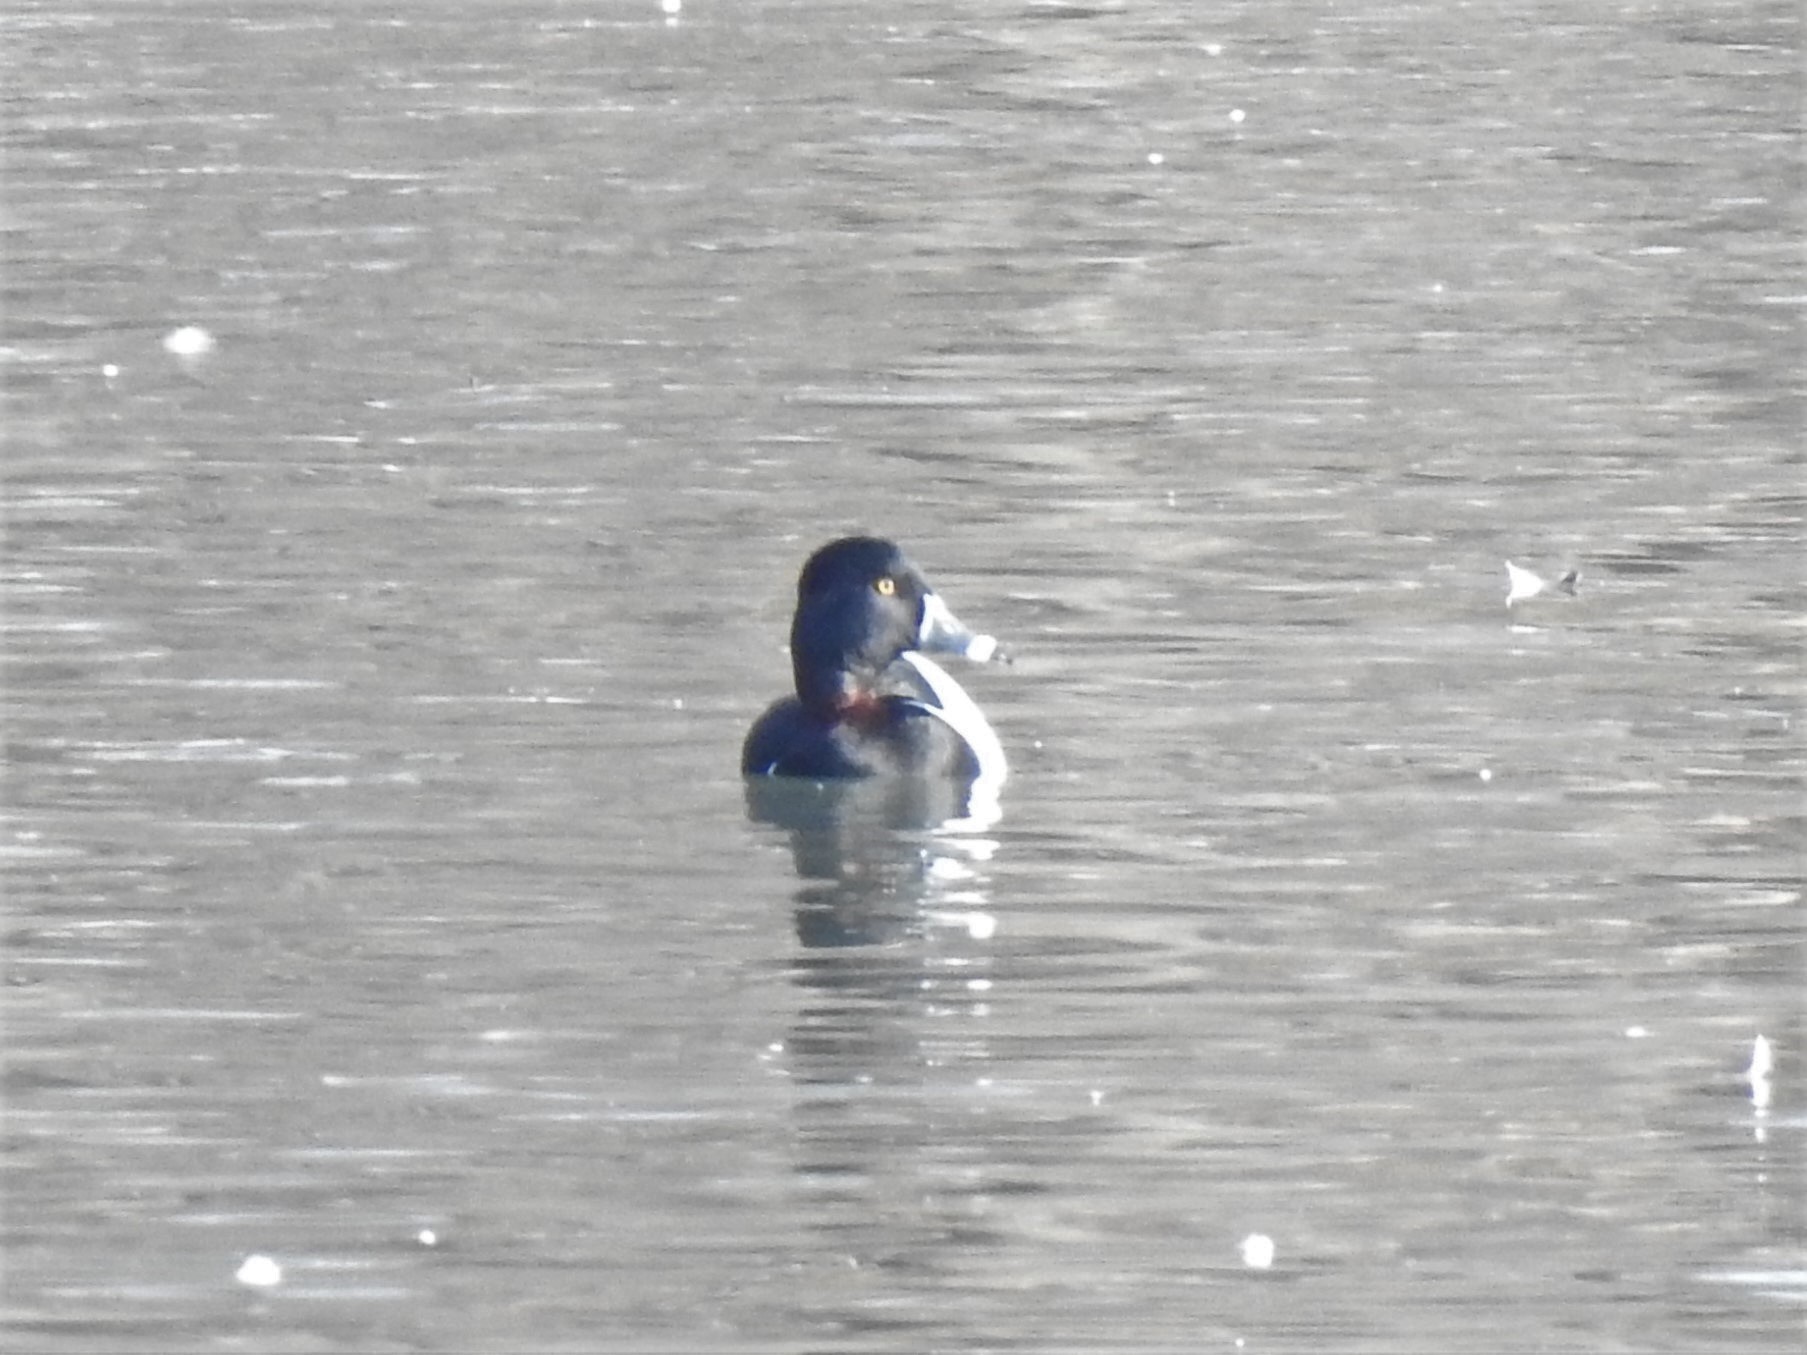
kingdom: Animalia
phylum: Chordata
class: Aves
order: Anseriformes
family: Anatidae
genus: Aythya
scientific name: Aythya collaris
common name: Ring-necked duck
